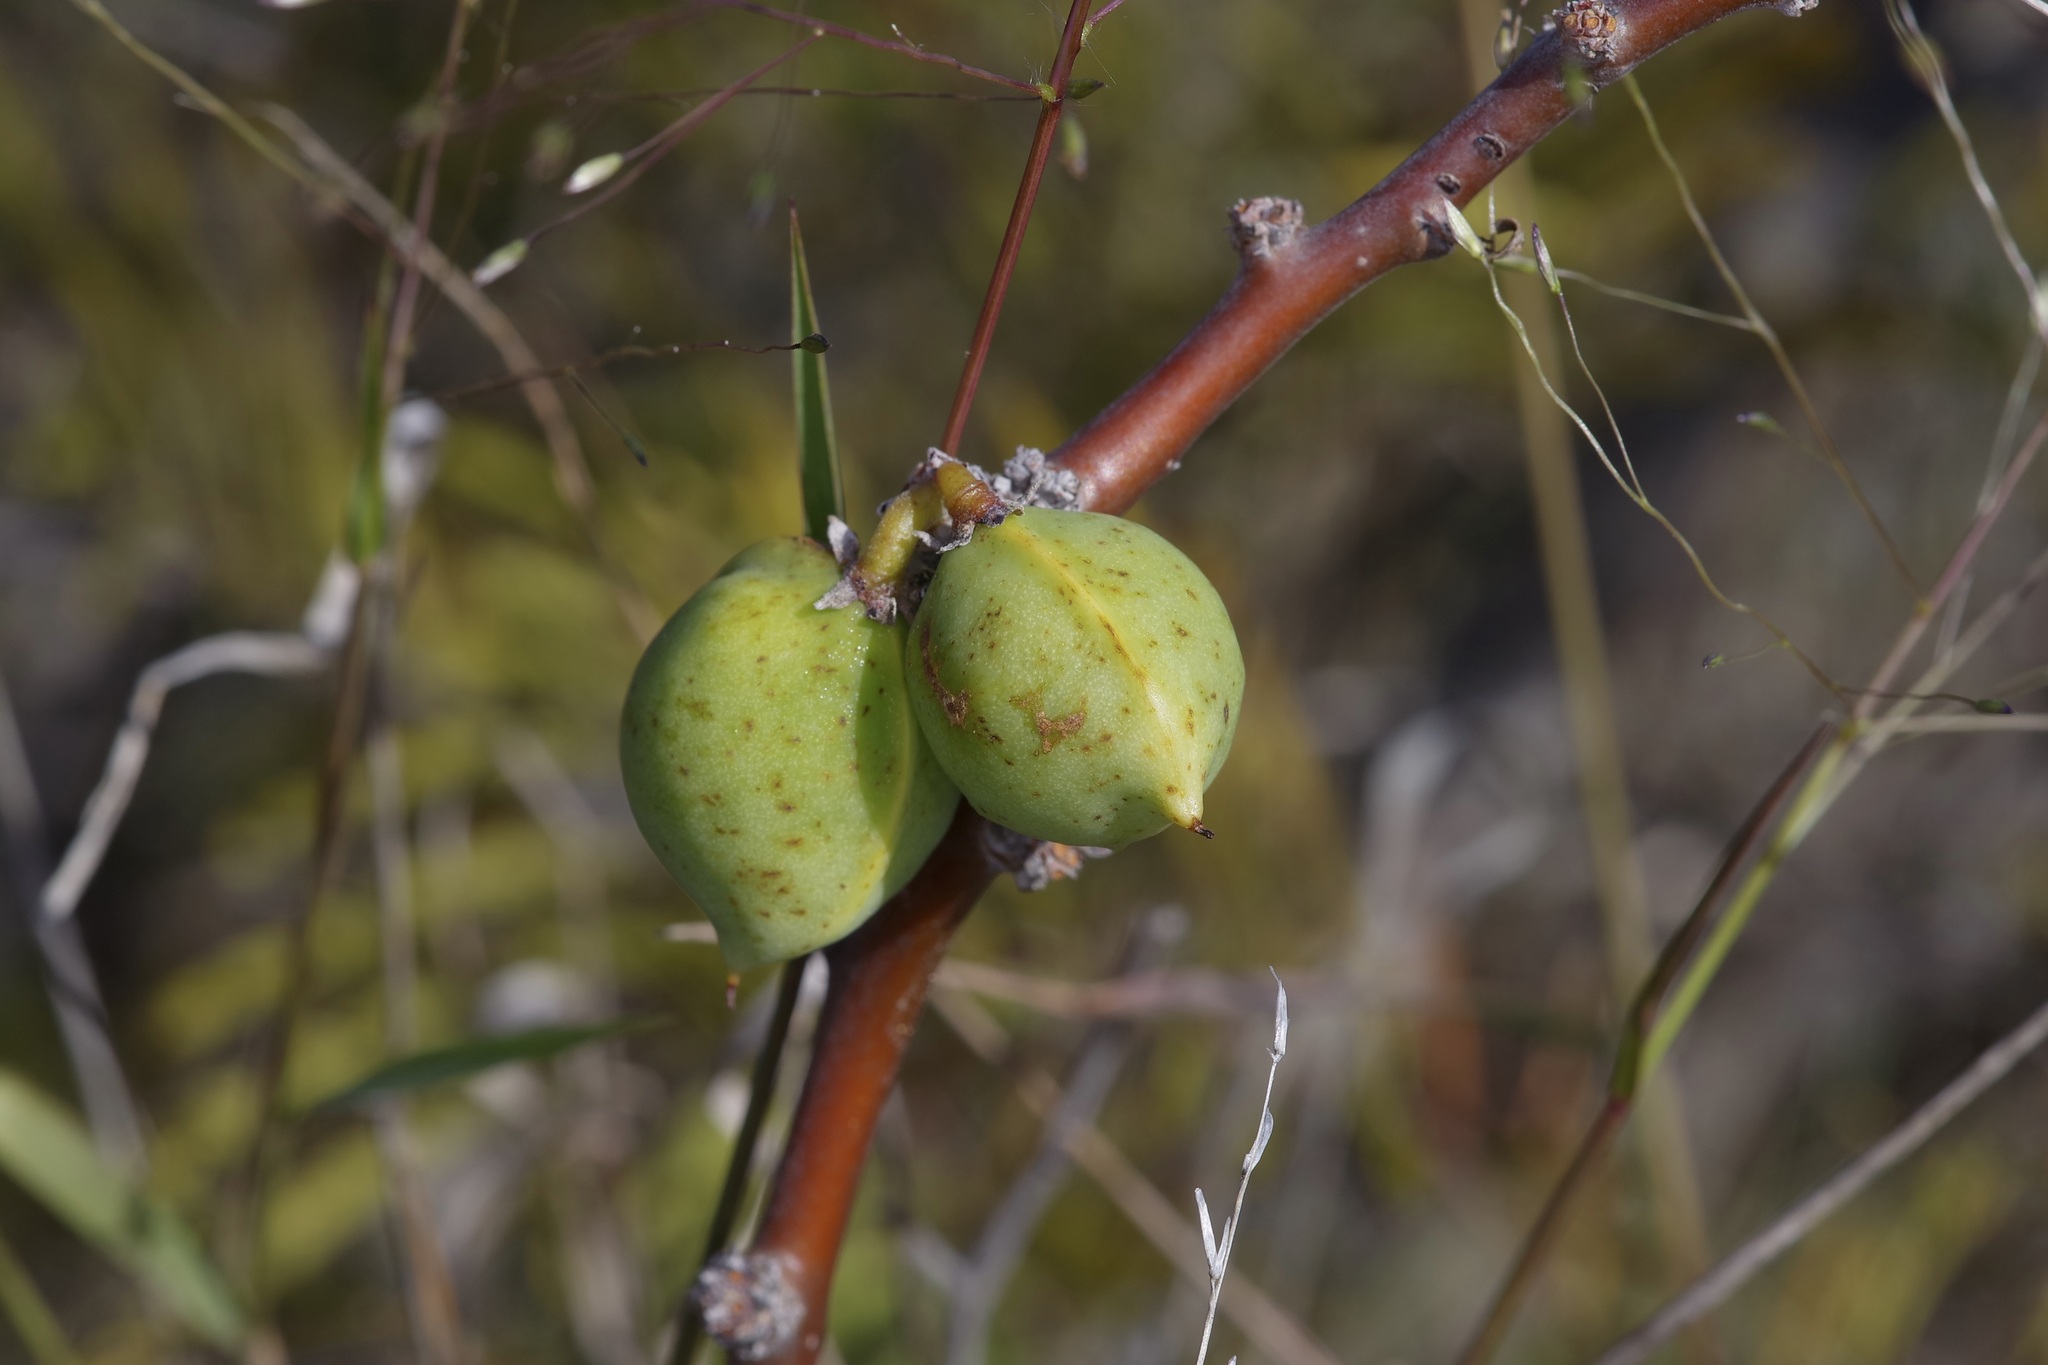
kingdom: Plantae
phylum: Tracheophyta
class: Magnoliopsida
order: Malpighiales
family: Euphorbiaceae
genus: Jatropha
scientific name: Jatropha dioica
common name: Leatherstem
